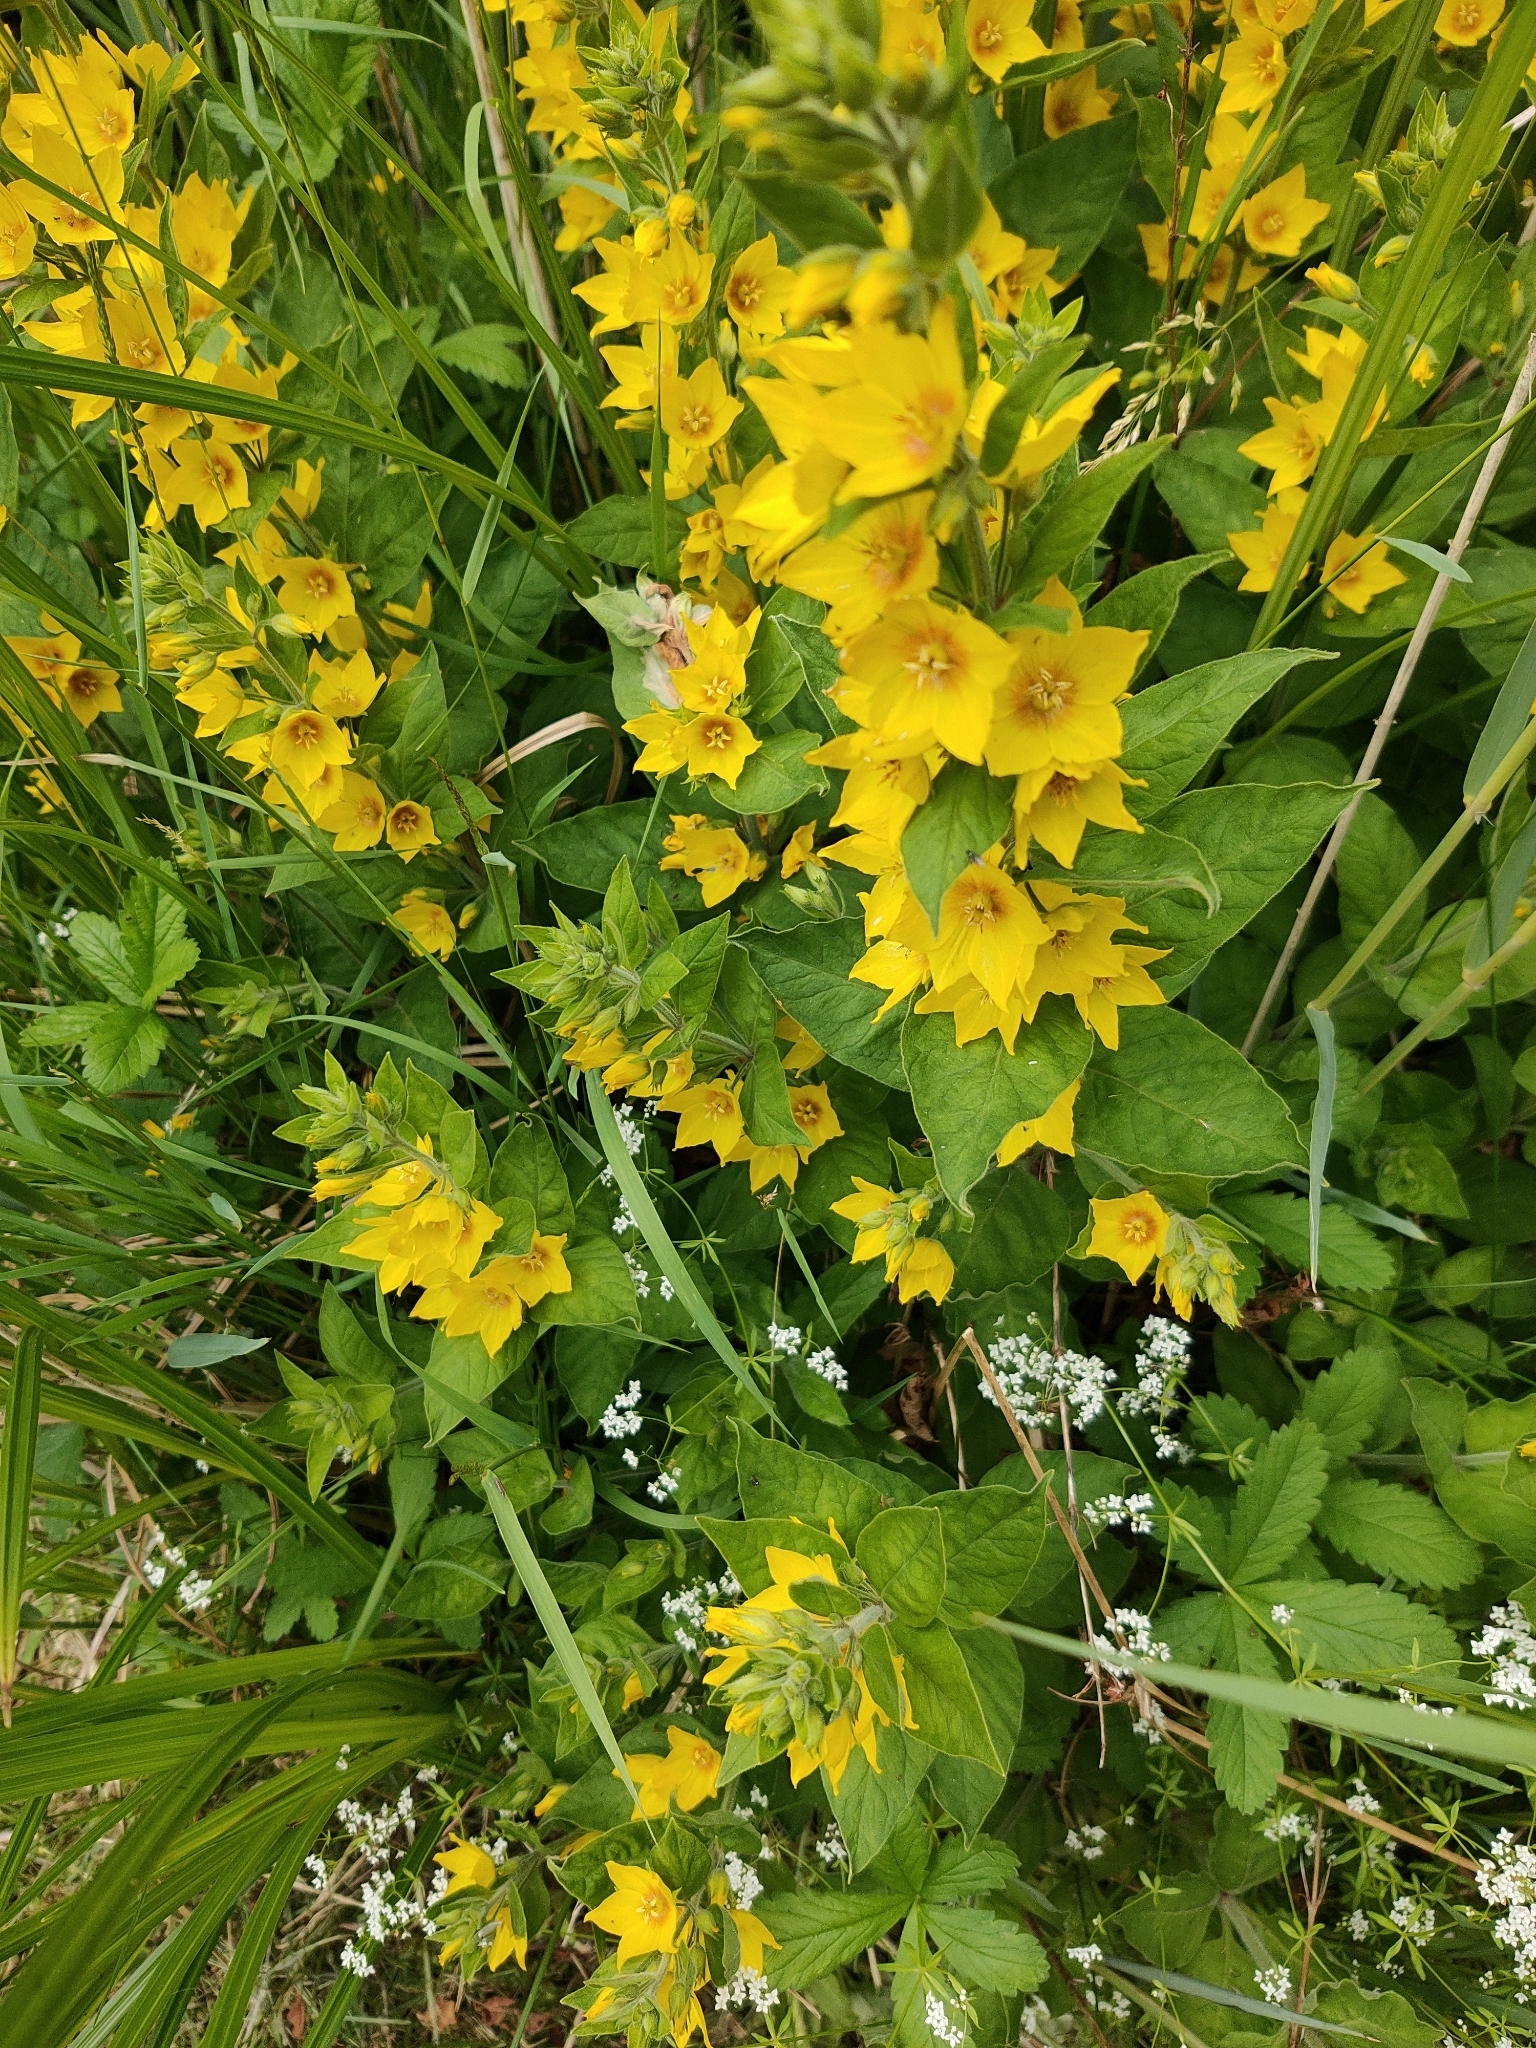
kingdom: Plantae
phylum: Tracheophyta
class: Magnoliopsida
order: Ericales
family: Primulaceae
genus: Lysimachia
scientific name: Lysimachia punctata
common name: Dotted loosestrife
